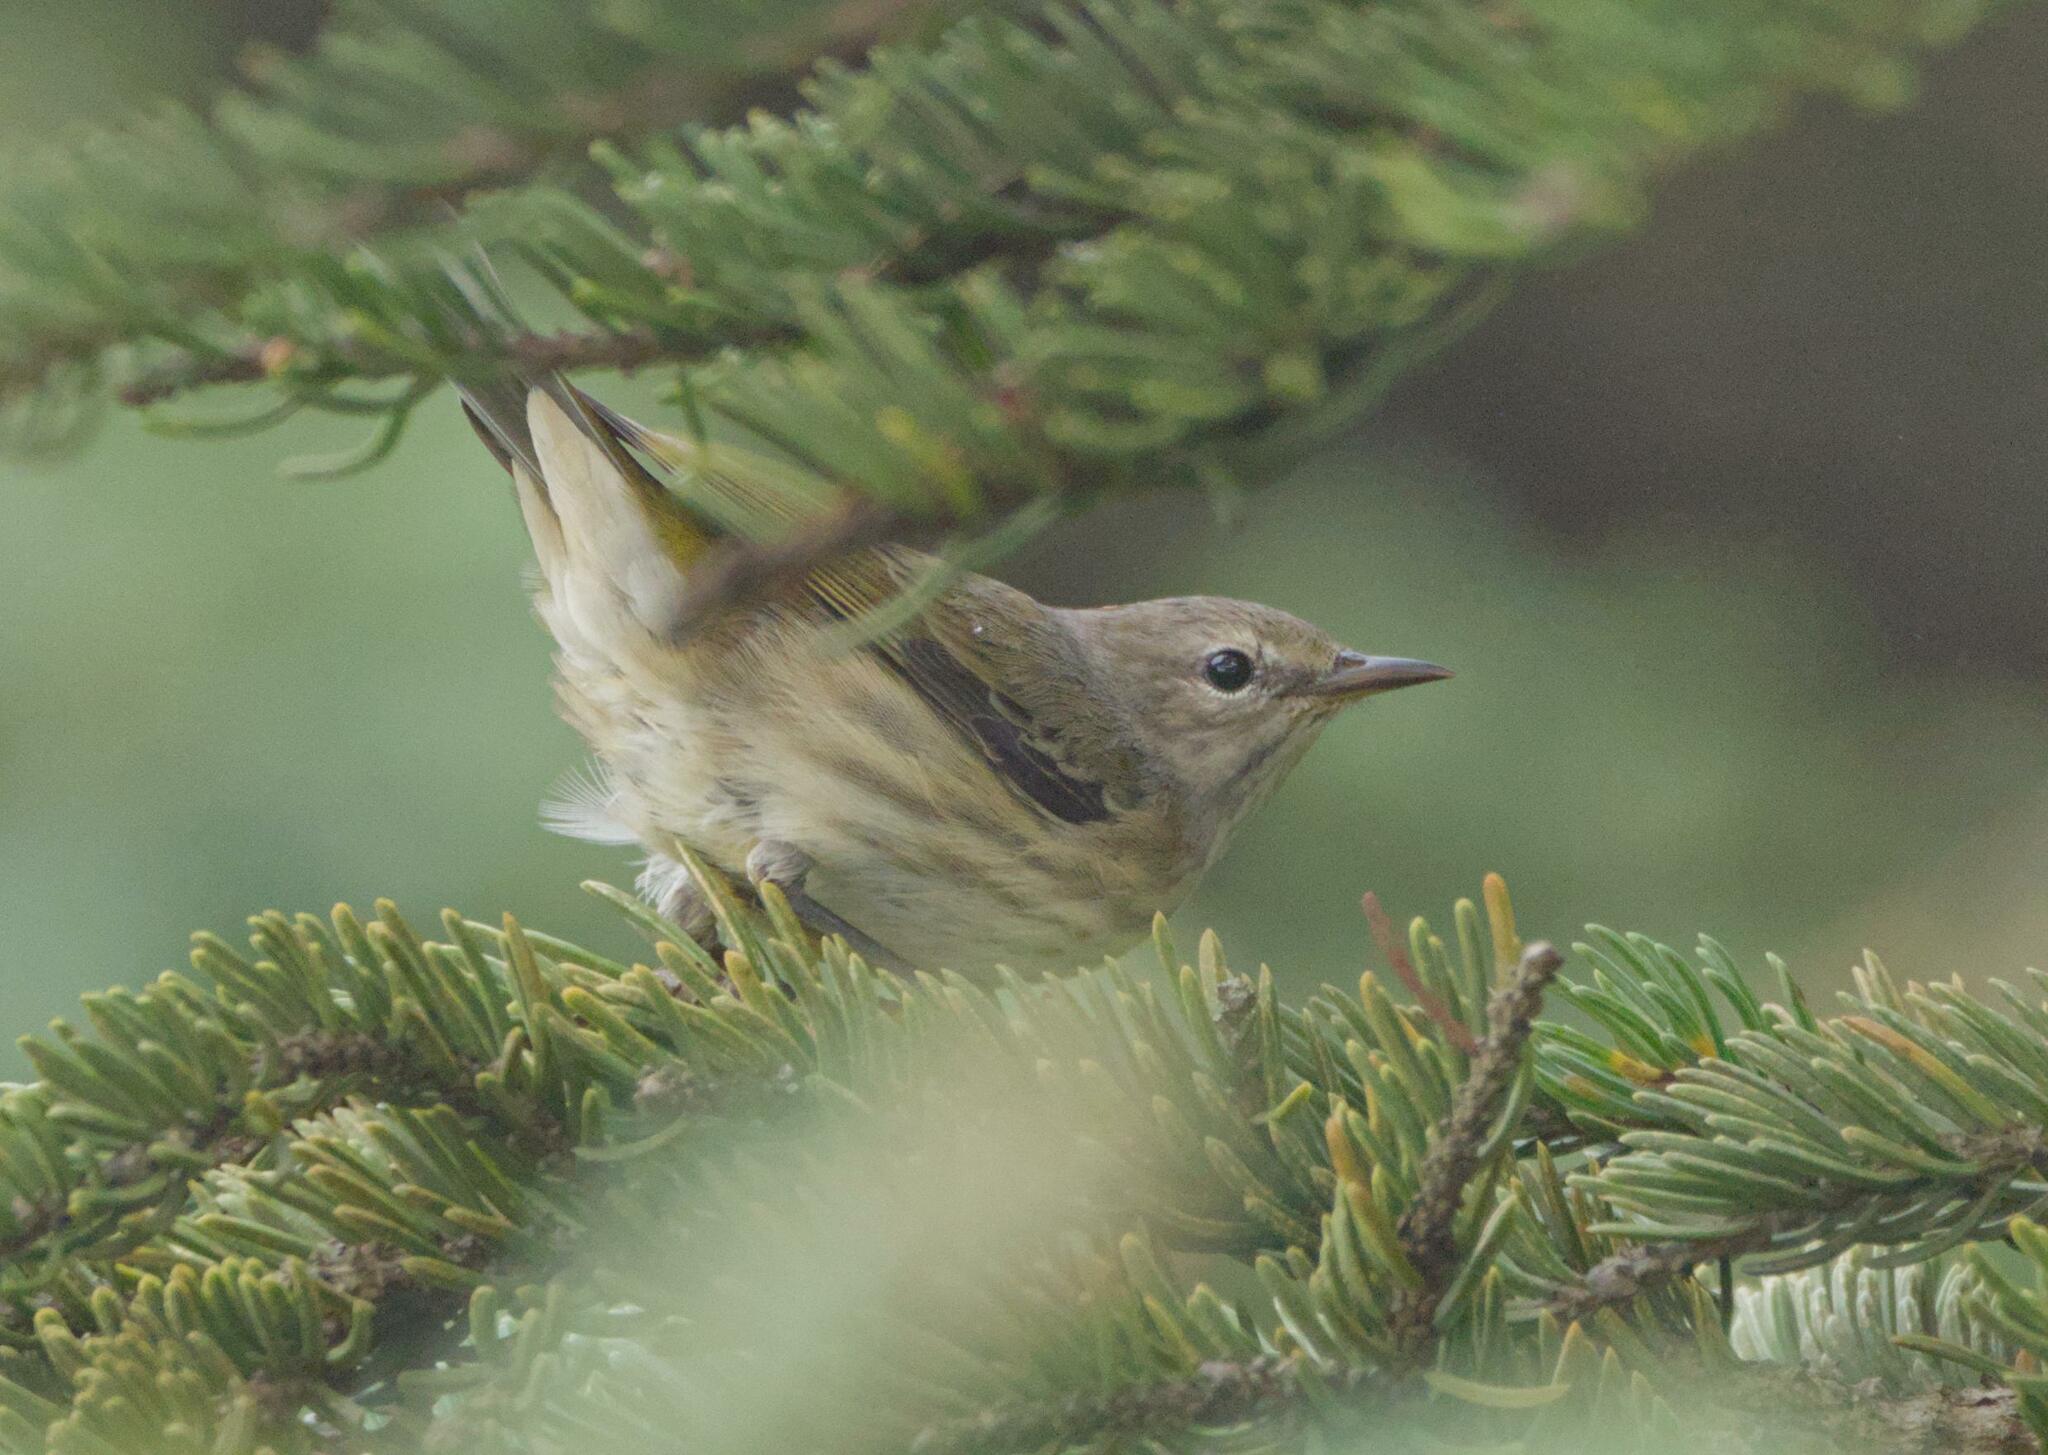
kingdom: Animalia
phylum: Chordata
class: Aves
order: Passeriformes
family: Parulidae
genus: Setophaga
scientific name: Setophaga tigrina
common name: Cape may warbler
